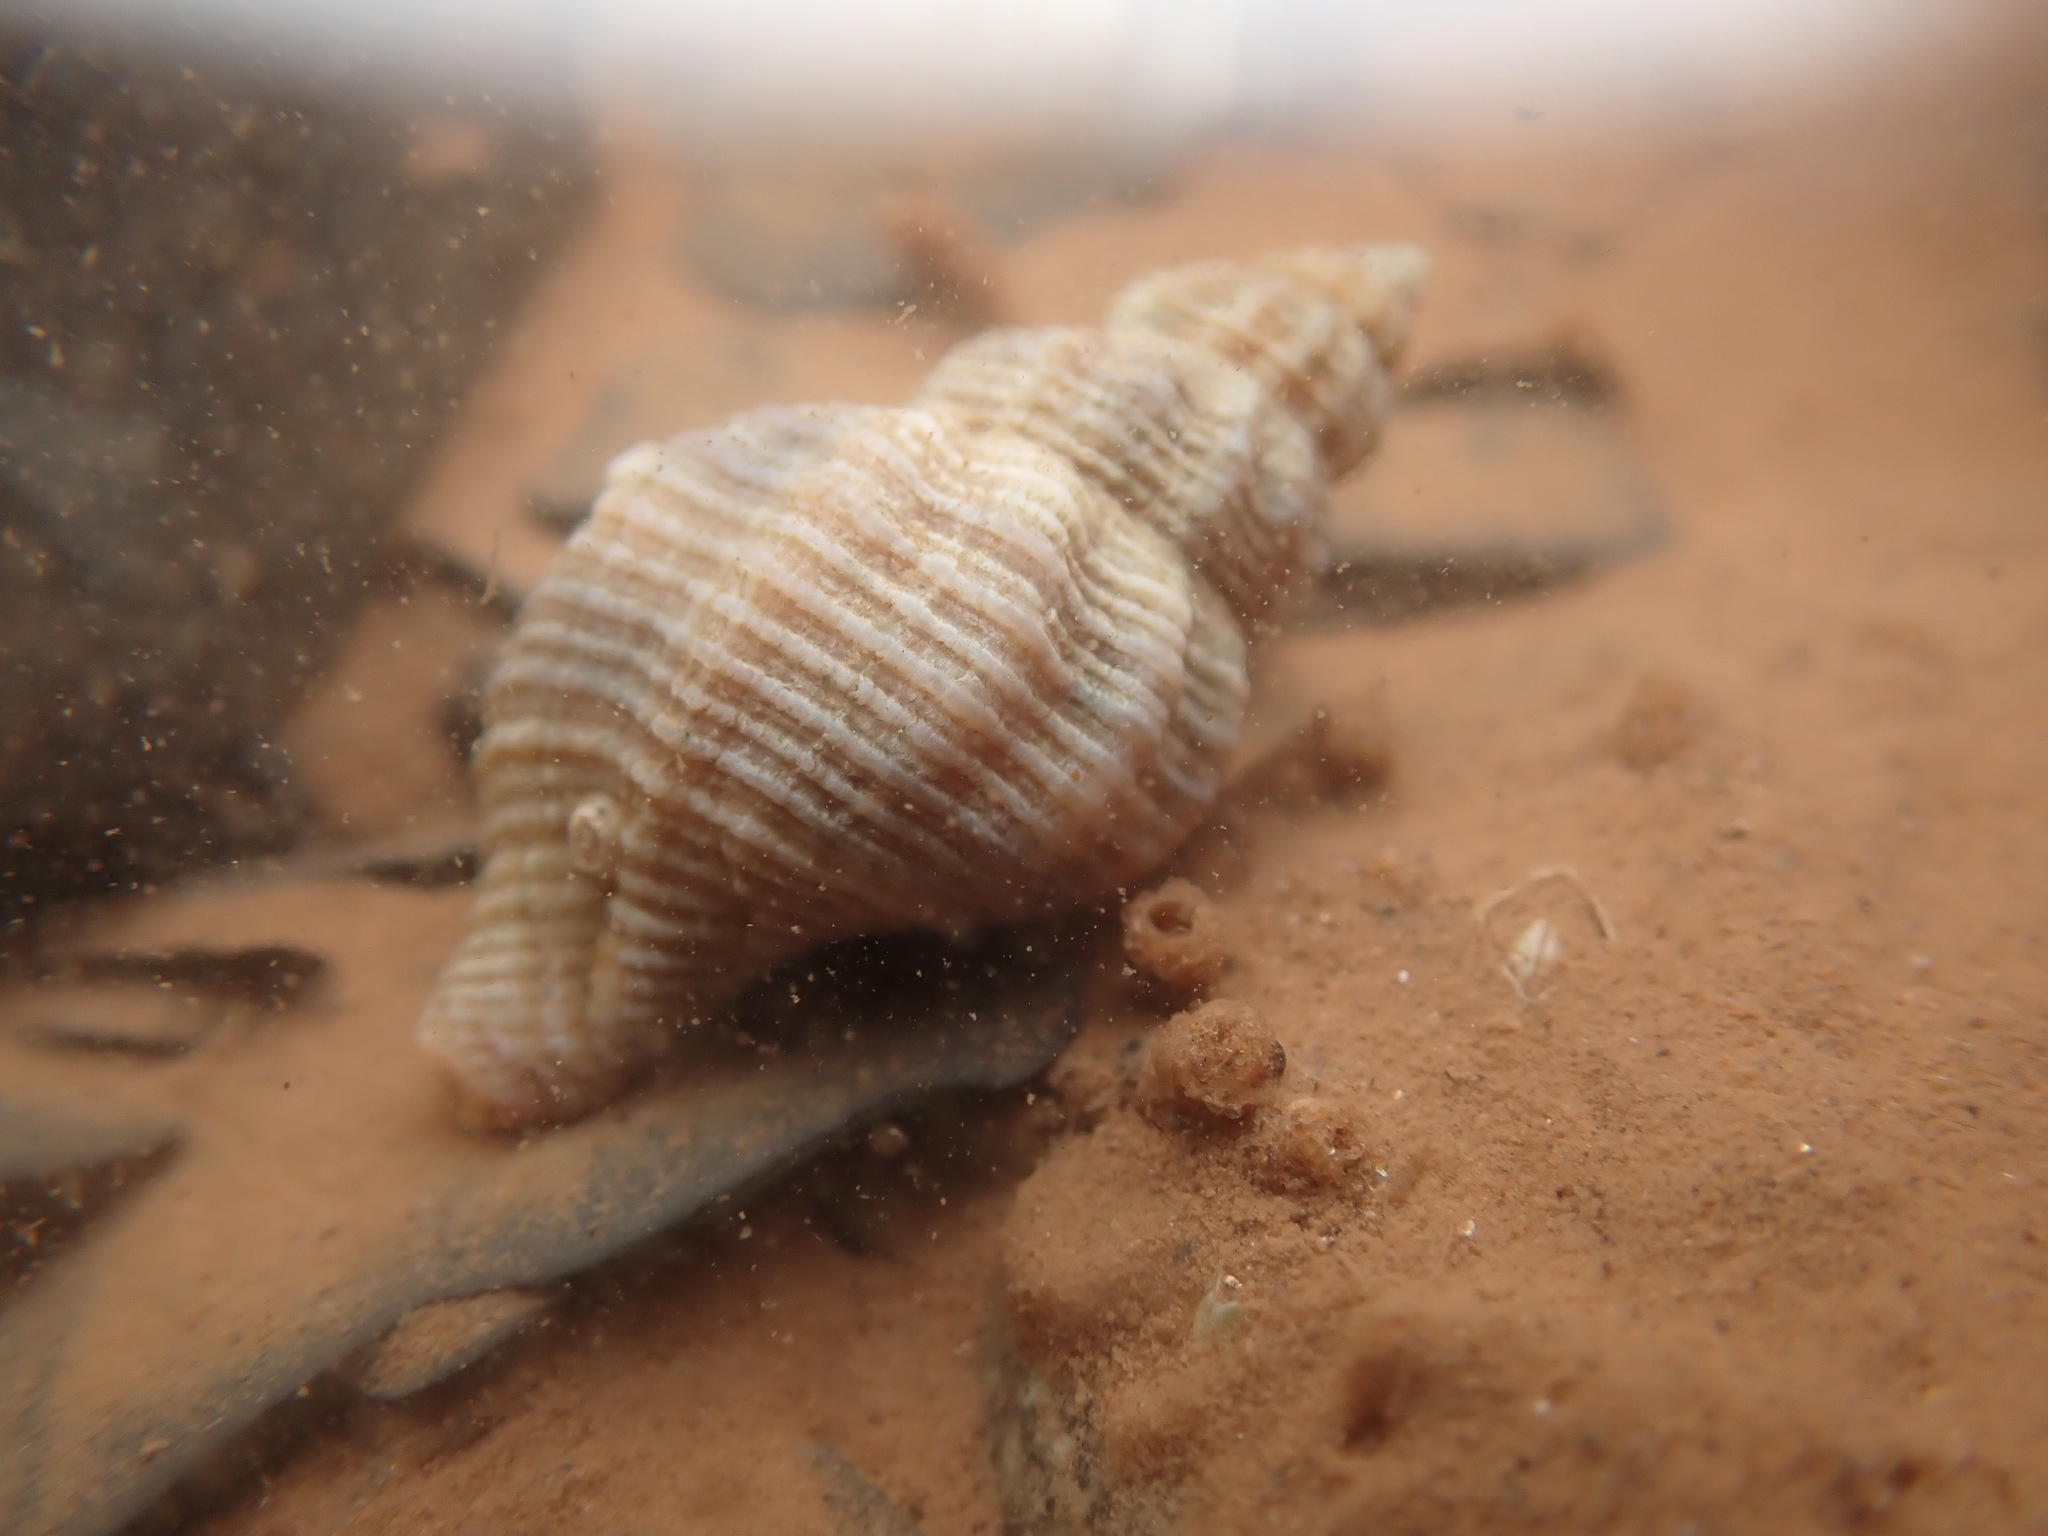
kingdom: Animalia
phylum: Mollusca
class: Gastropoda
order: Neogastropoda
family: Muricidae
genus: Urosalpinx
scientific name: Urosalpinx cinerea
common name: American sting winkle
